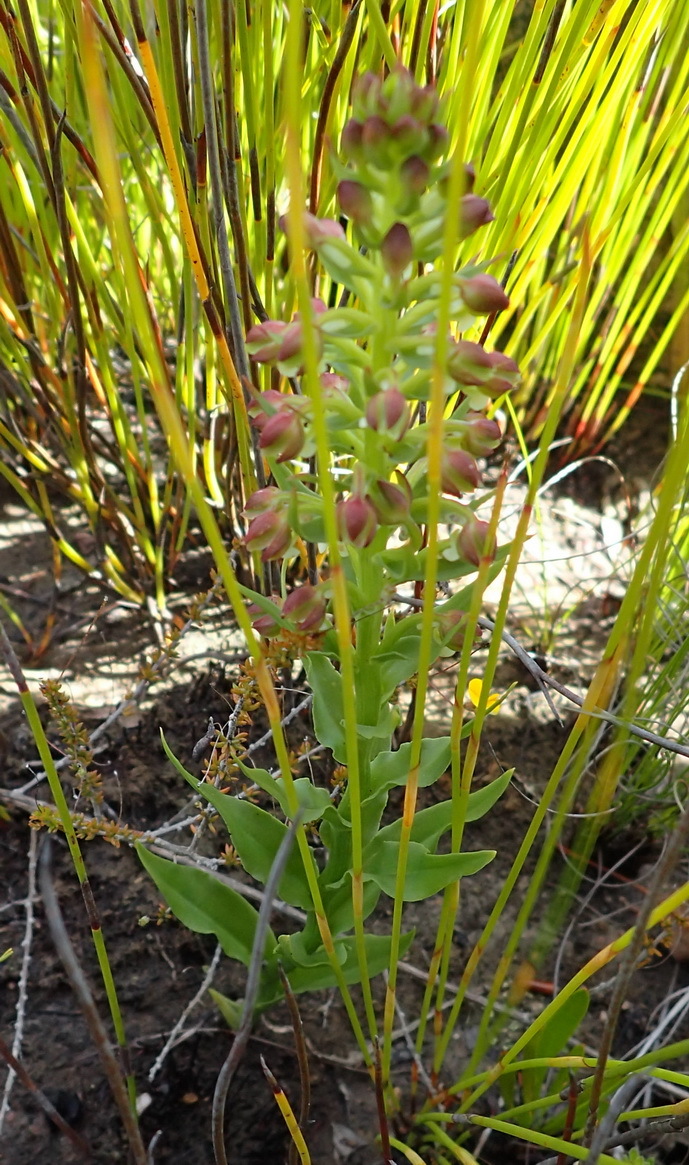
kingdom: Plantae
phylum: Tracheophyta
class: Liliopsida
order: Asparagales
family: Orchidaceae
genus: Brachycorythis
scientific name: Brachycorythis mac-owaniana
